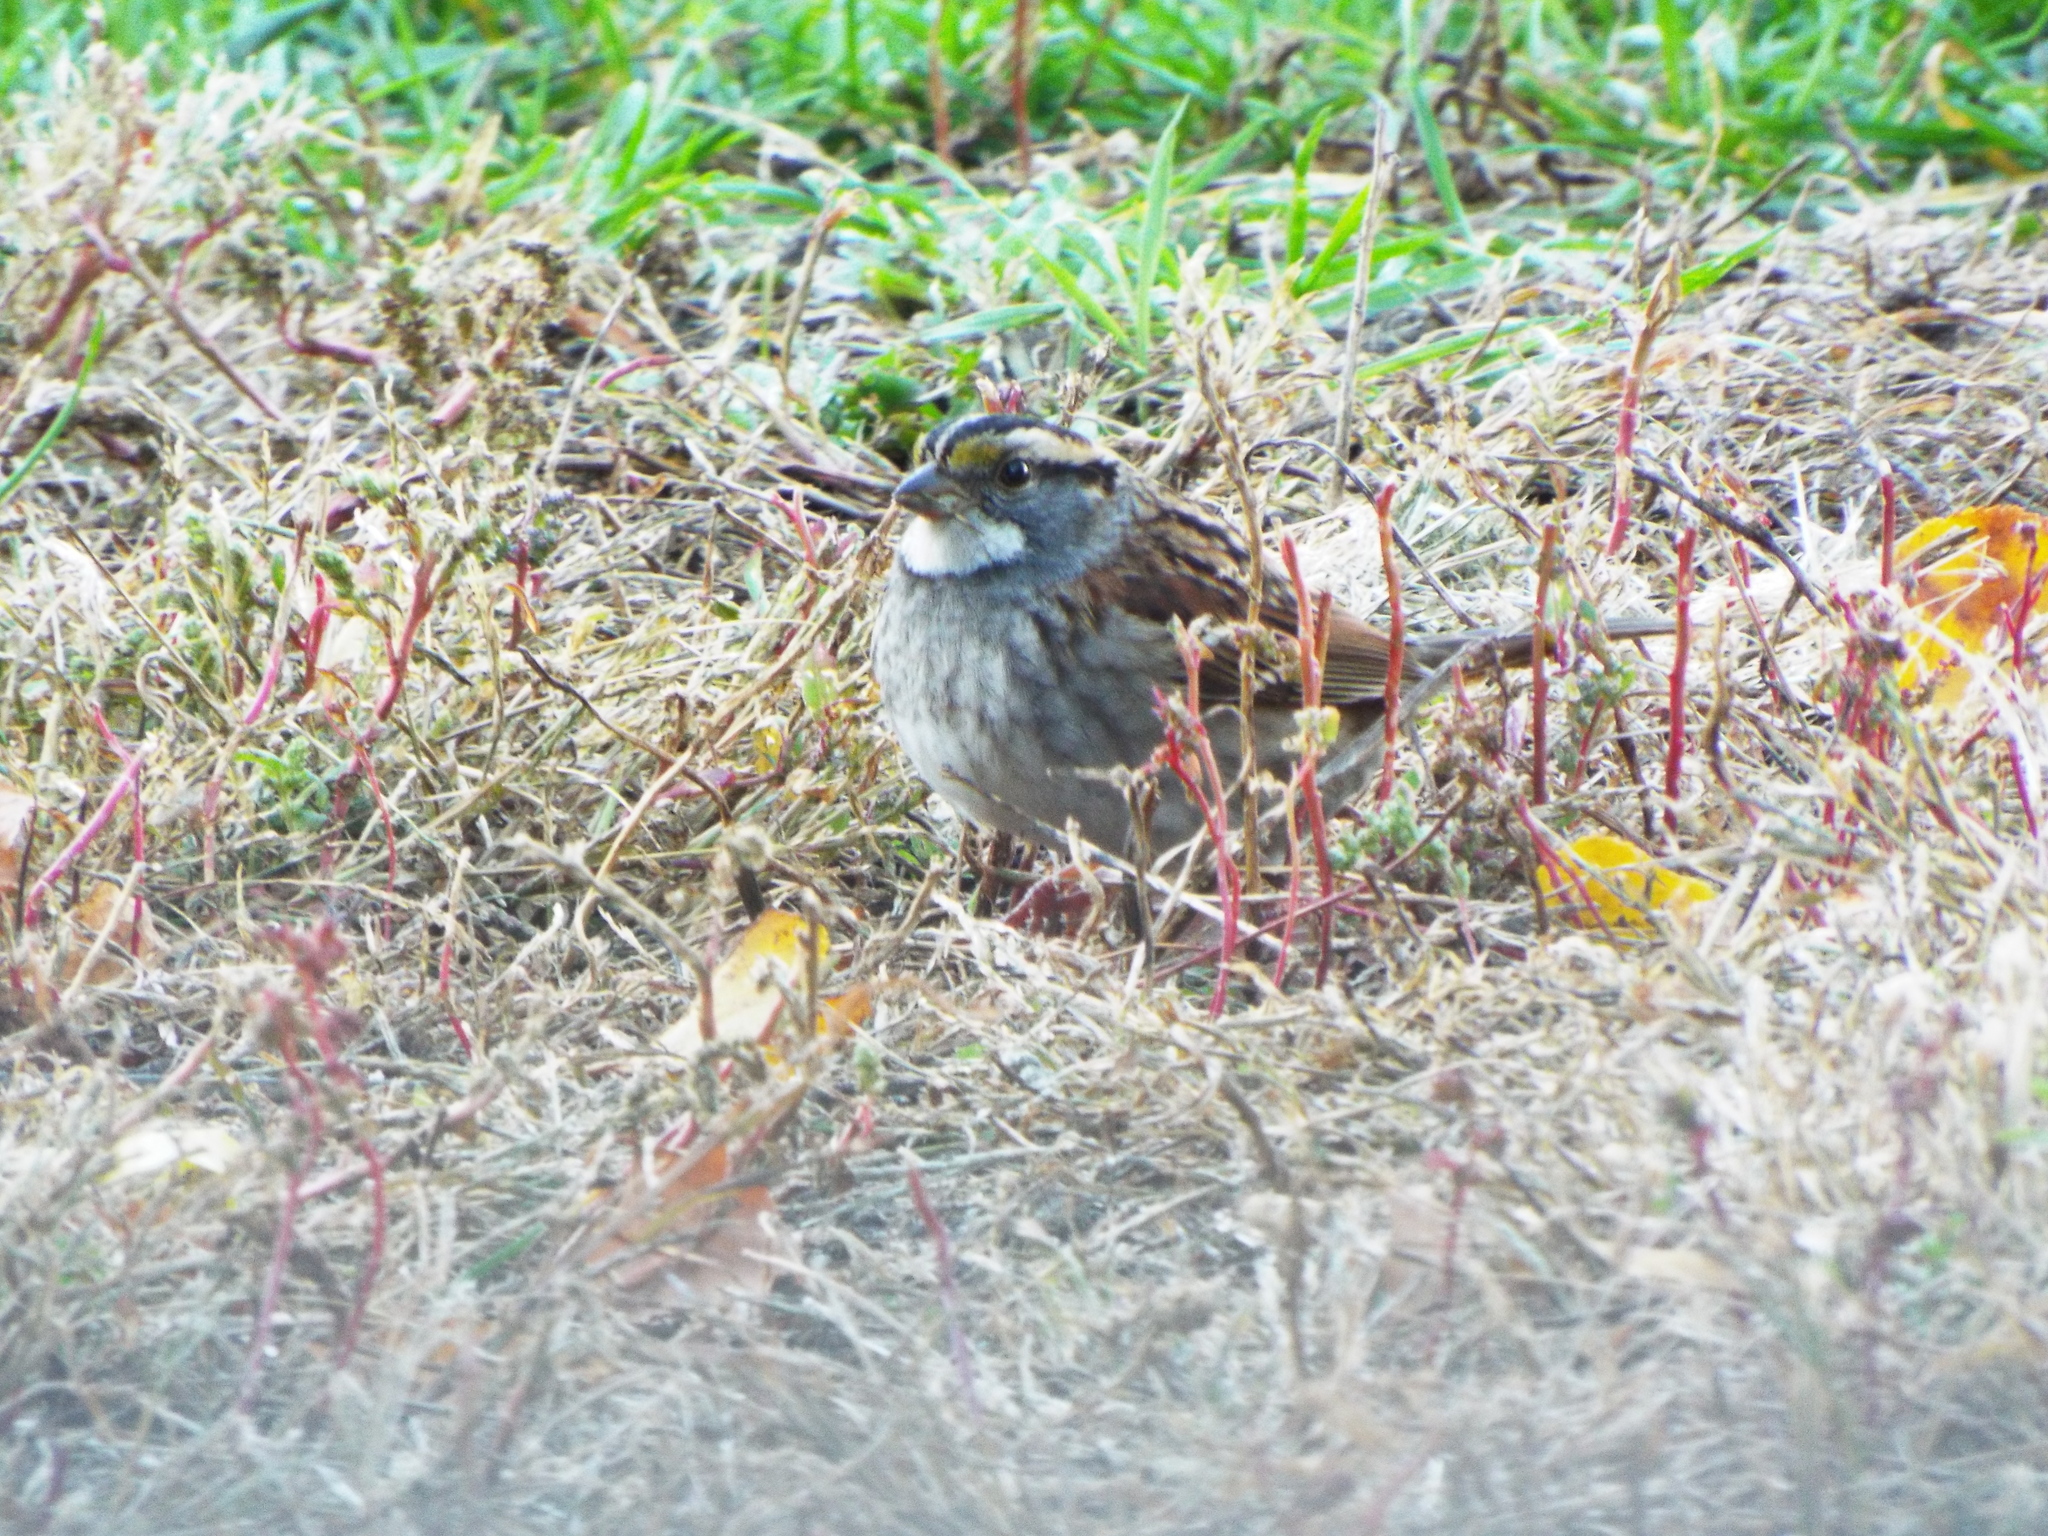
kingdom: Animalia
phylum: Chordata
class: Aves
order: Passeriformes
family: Passerellidae
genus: Zonotrichia
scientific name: Zonotrichia albicollis
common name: White-throated sparrow
